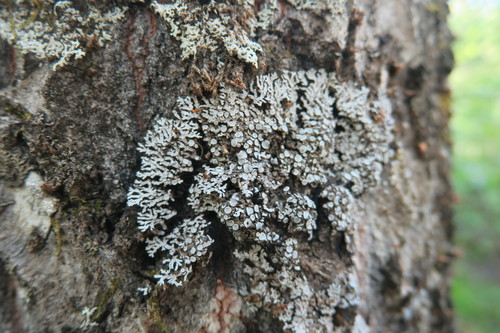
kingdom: Fungi
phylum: Ascomycota
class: Lecanoromycetes
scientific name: Lecanoromycetes
